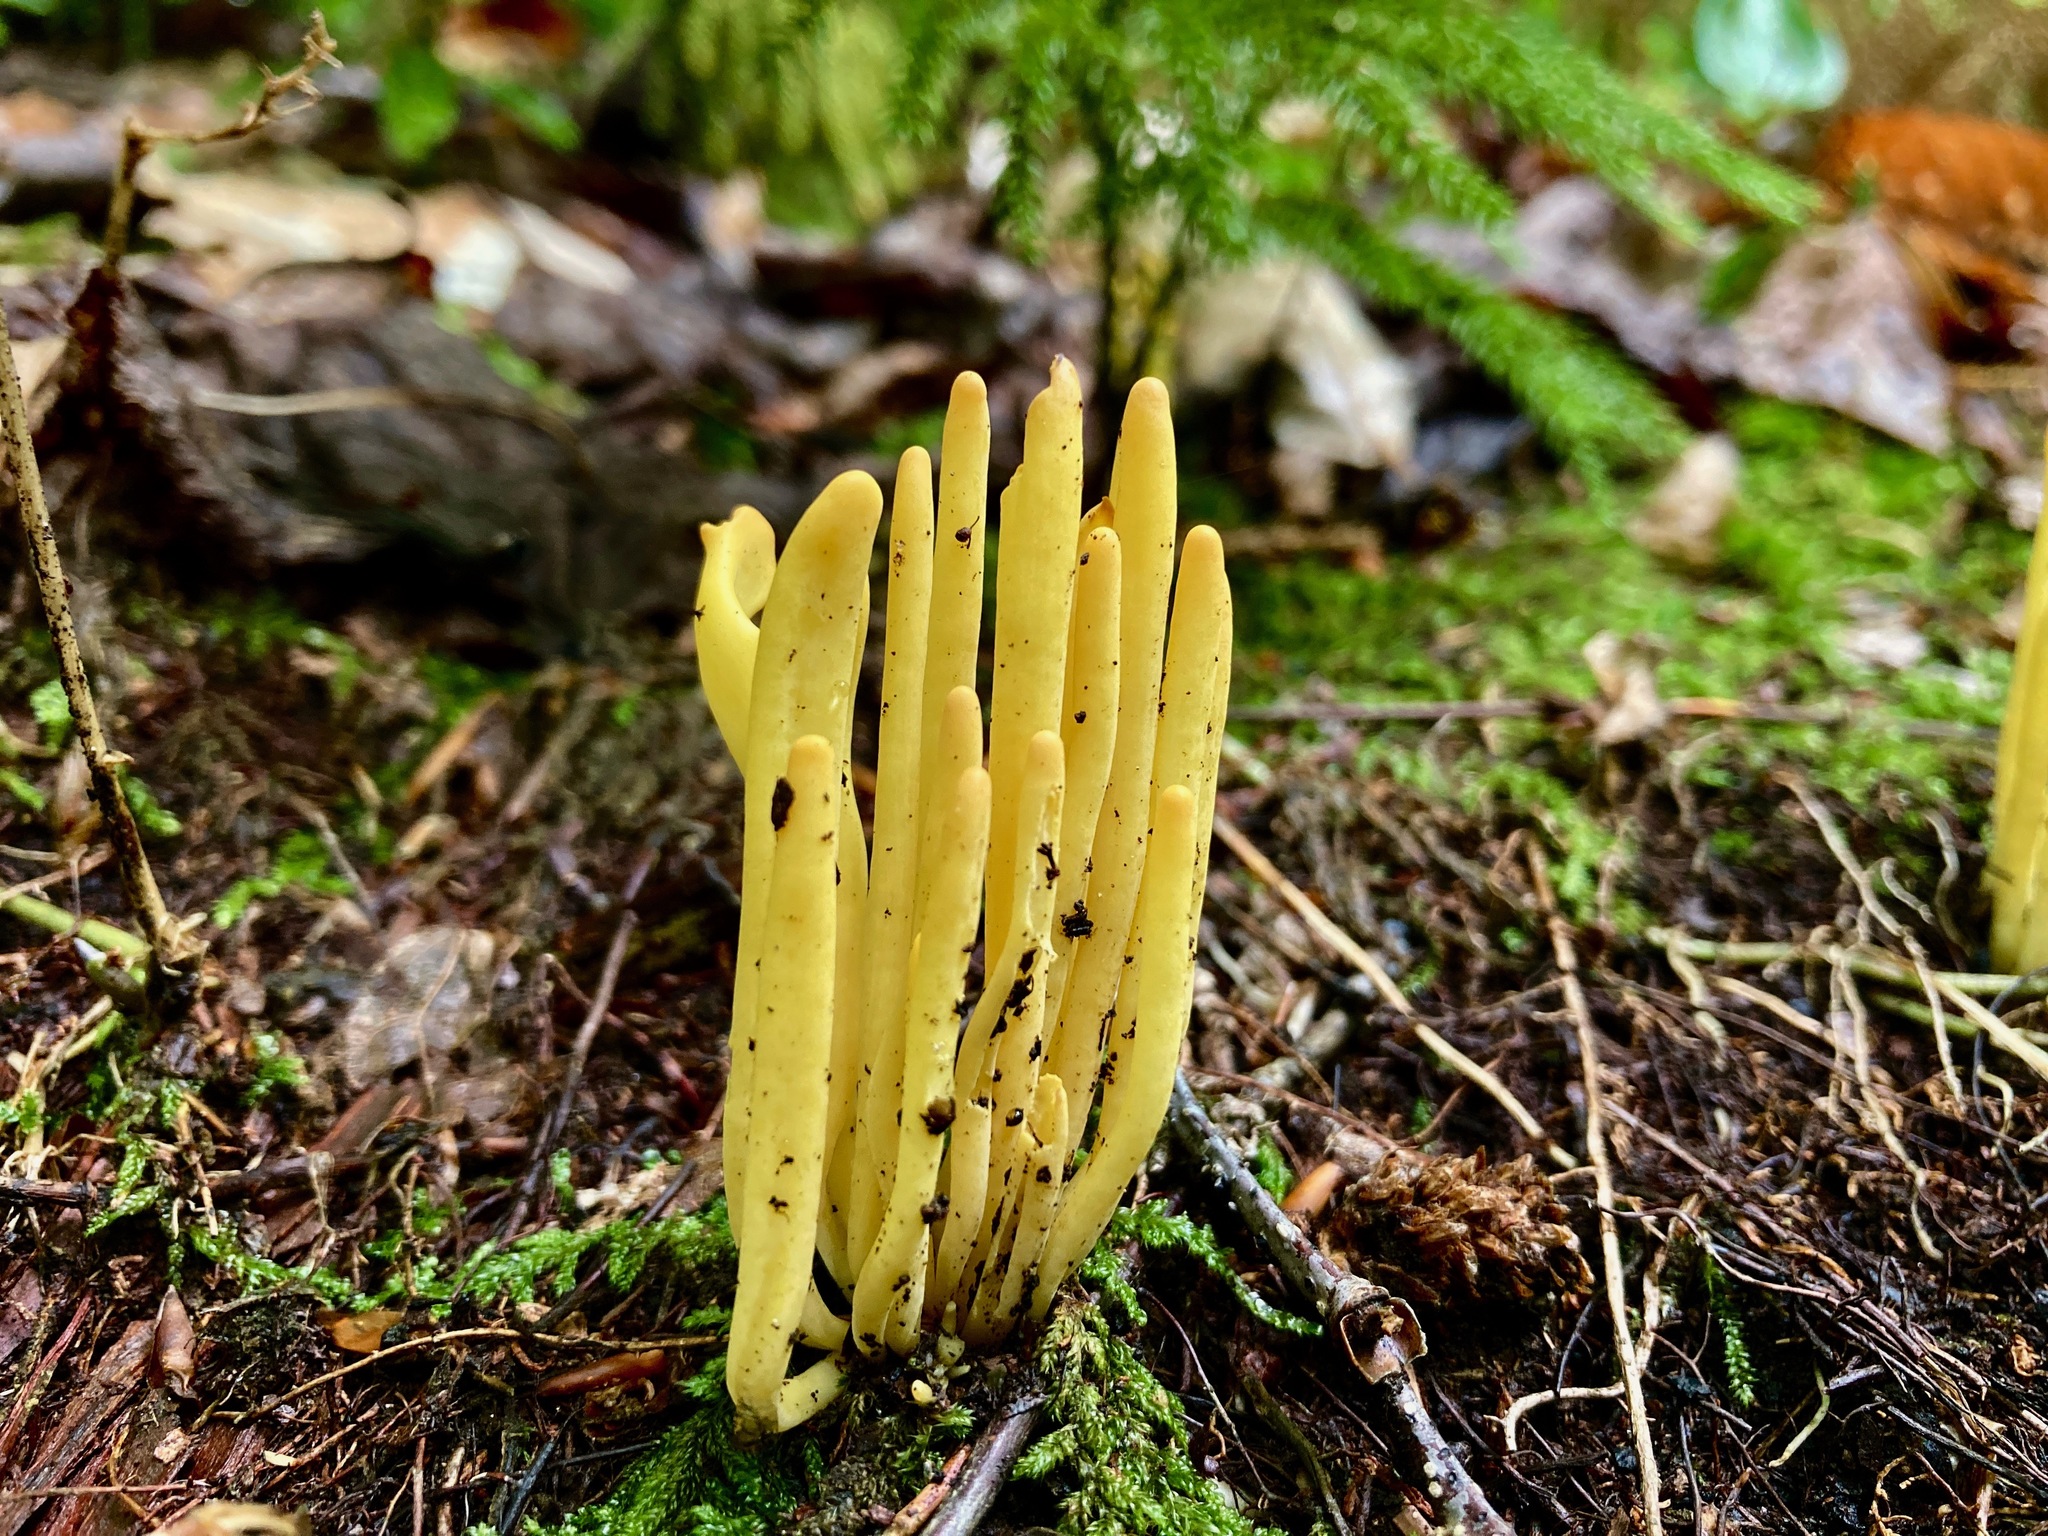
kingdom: Fungi
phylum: Basidiomycota
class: Agaricomycetes
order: Agaricales
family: Clavariaceae
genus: Clavulinopsis
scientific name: Clavulinopsis fusiformis
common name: Golden spindles
